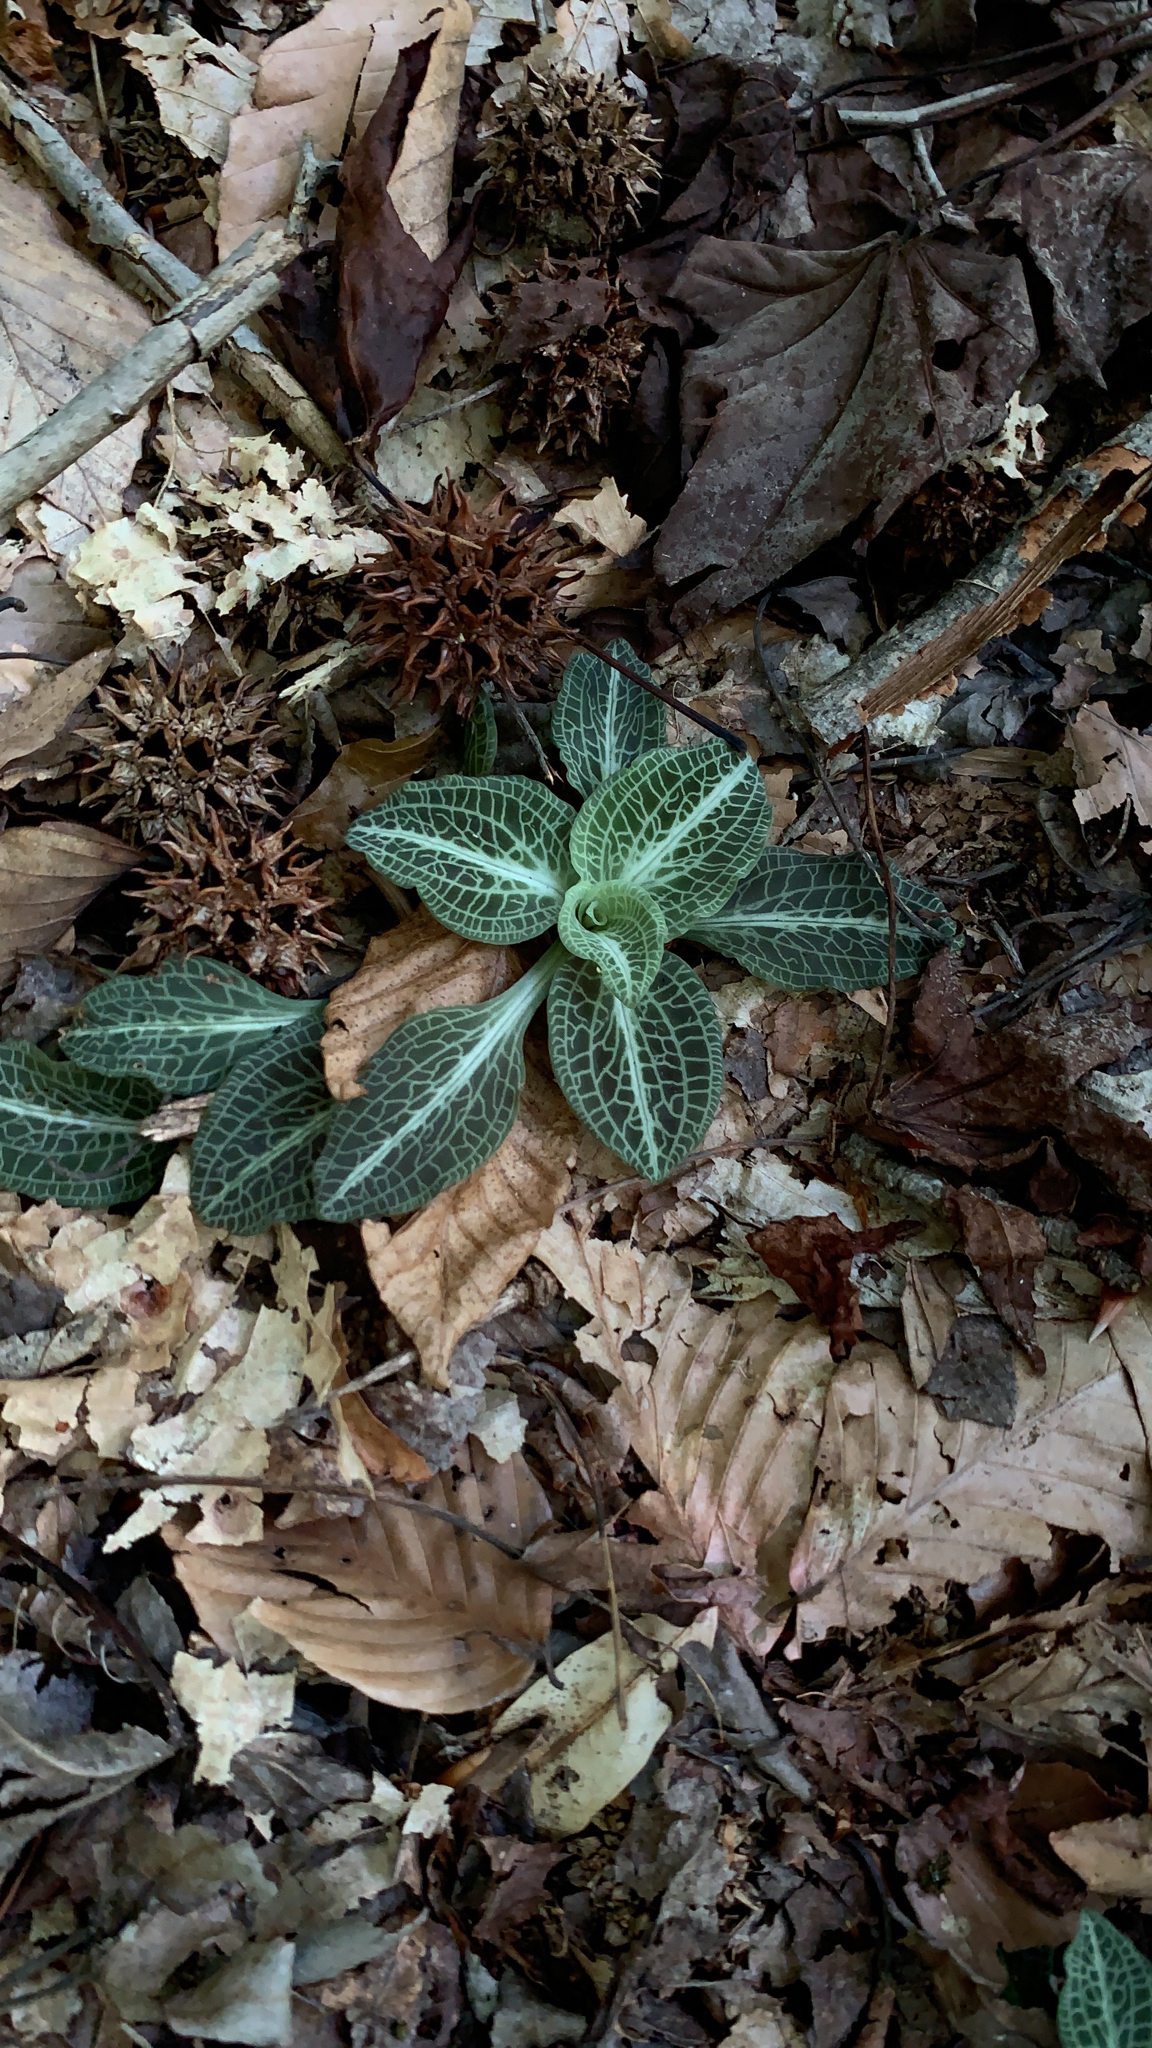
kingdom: Plantae
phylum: Tracheophyta
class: Liliopsida
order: Asparagales
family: Orchidaceae
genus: Goodyera
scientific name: Goodyera pubescens
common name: Downy rattlesnake-plantain
